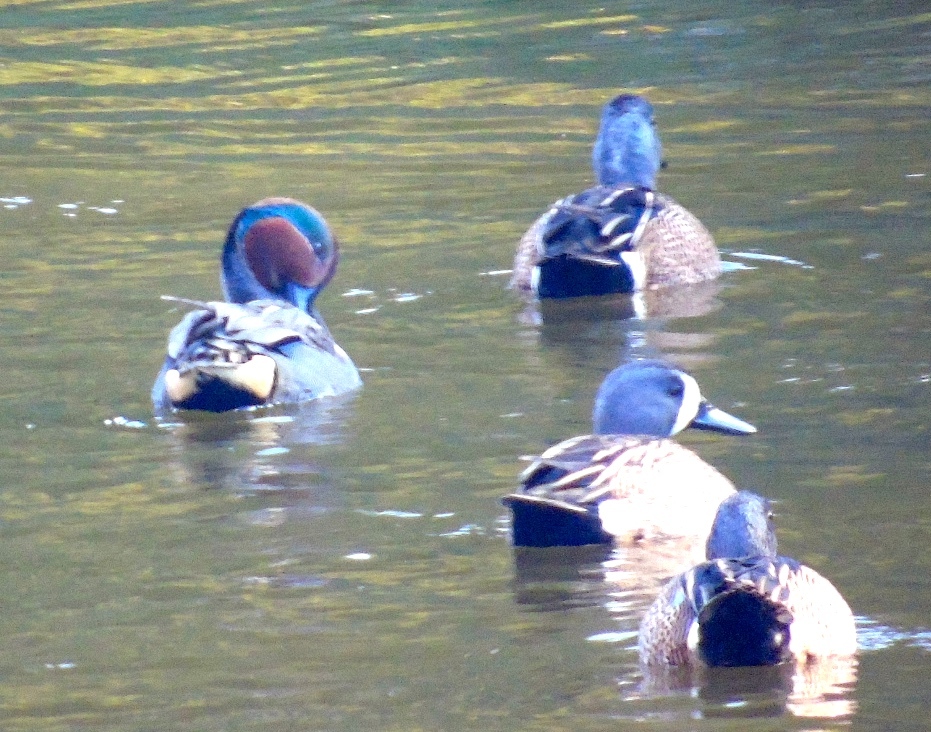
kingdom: Animalia
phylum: Chordata
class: Aves
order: Anseriformes
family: Anatidae
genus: Anas
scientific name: Anas crecca
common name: Eurasian teal
